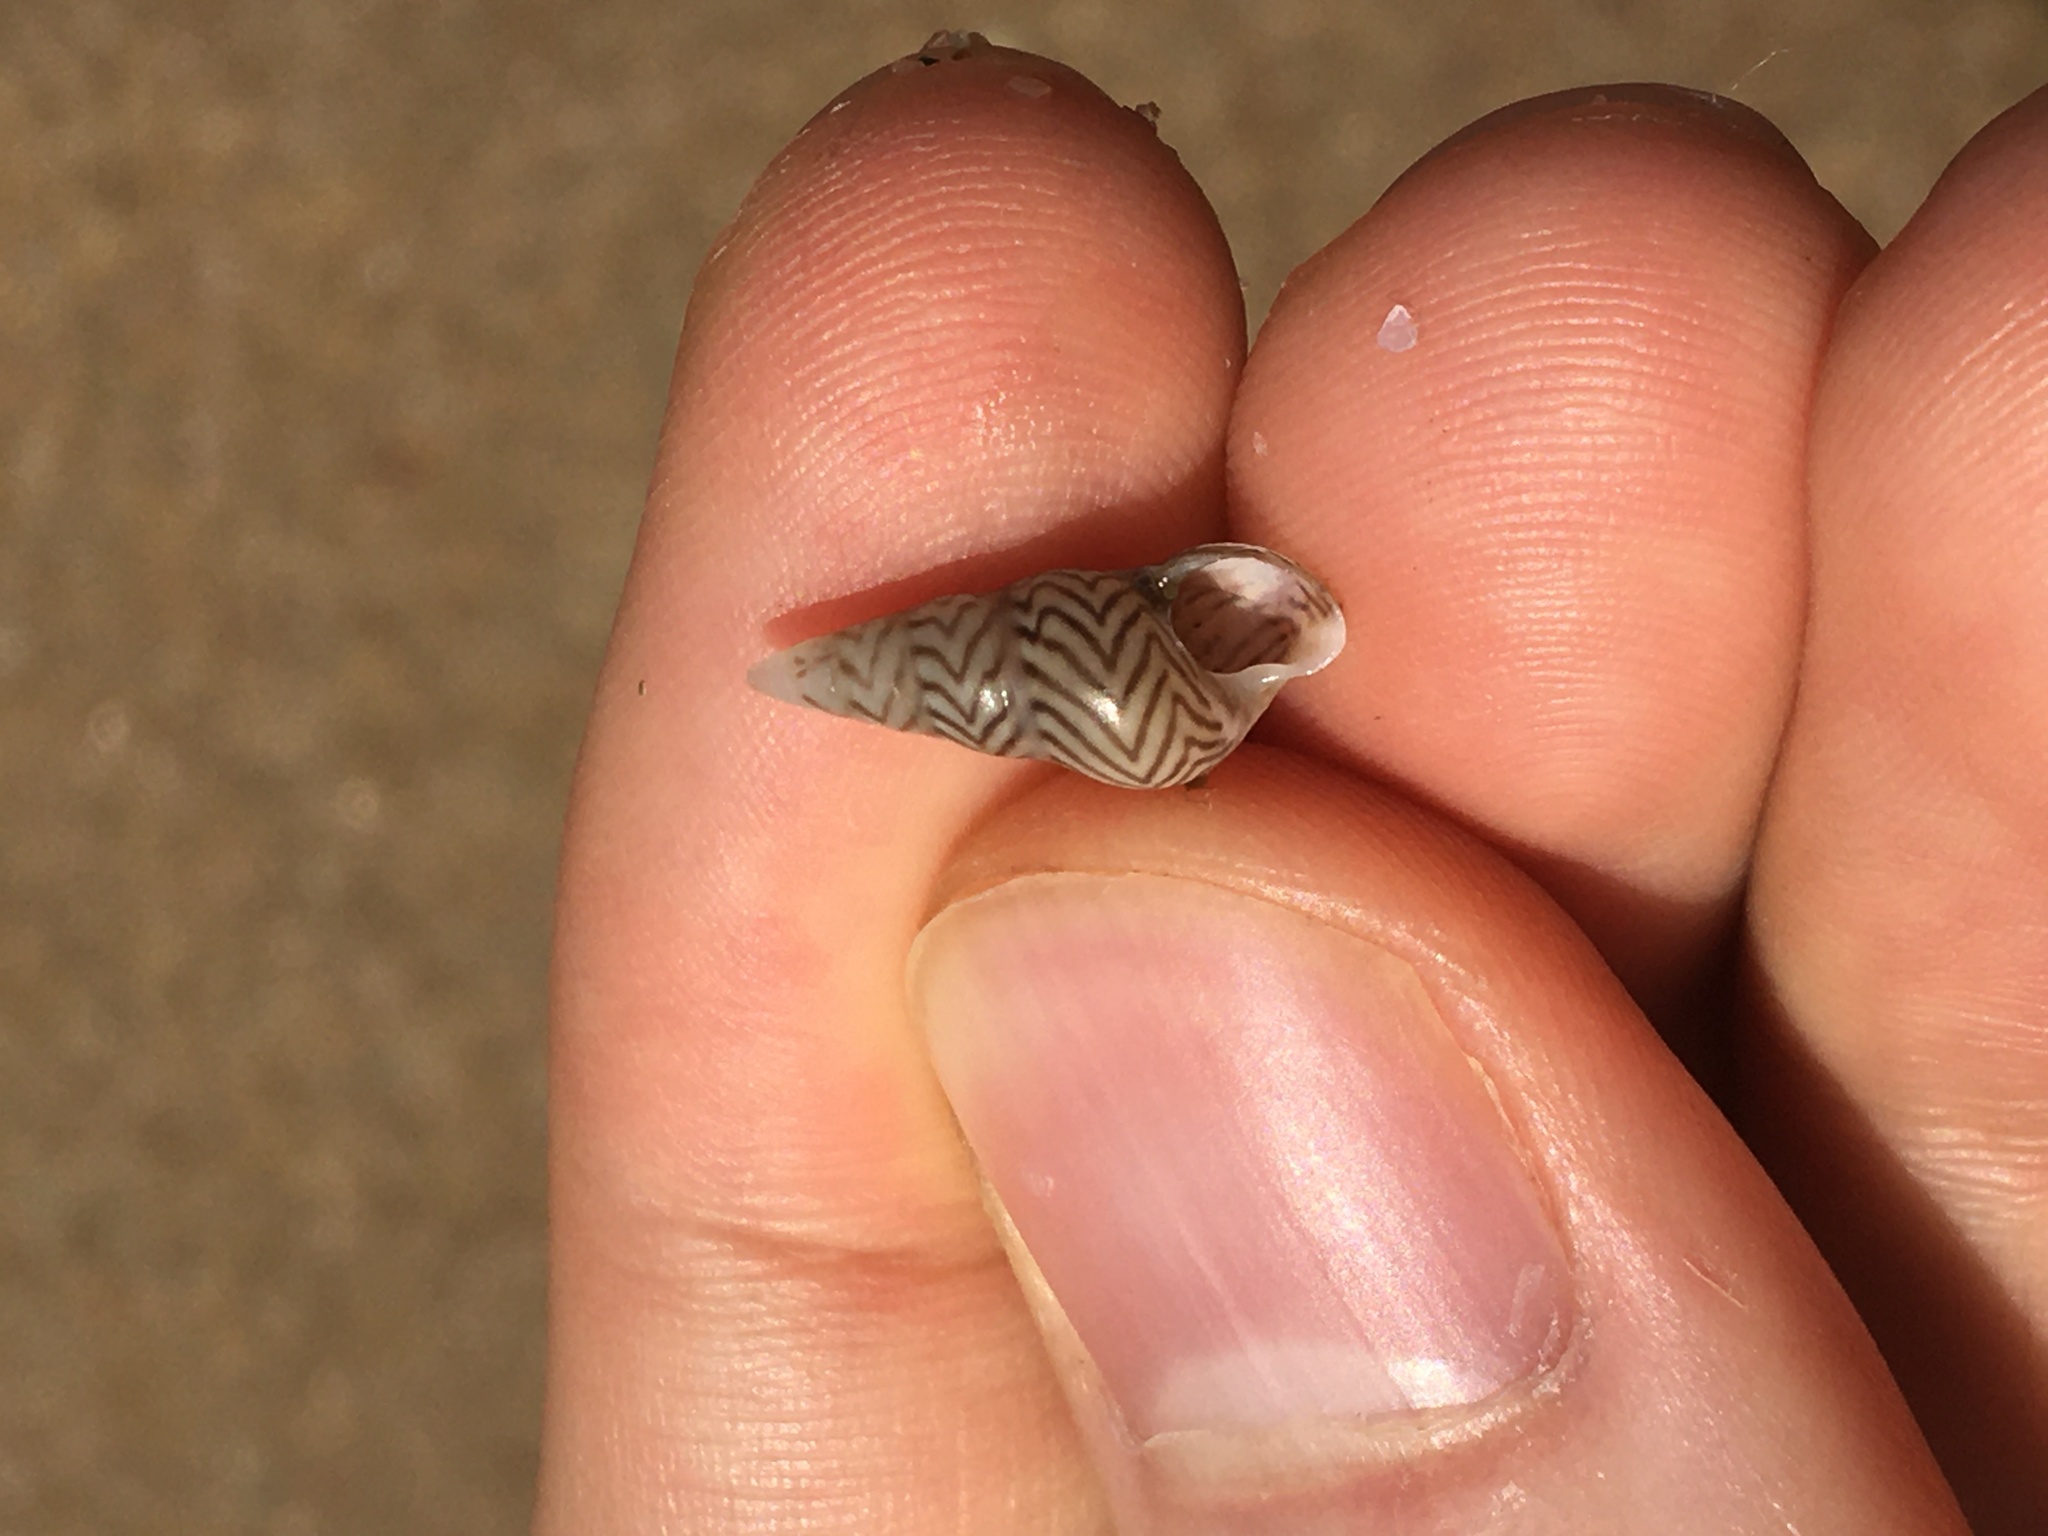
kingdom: Animalia
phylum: Mollusca
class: Gastropoda
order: Trochida
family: Trochidae
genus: Bankivia
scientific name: Bankivia fasciata
